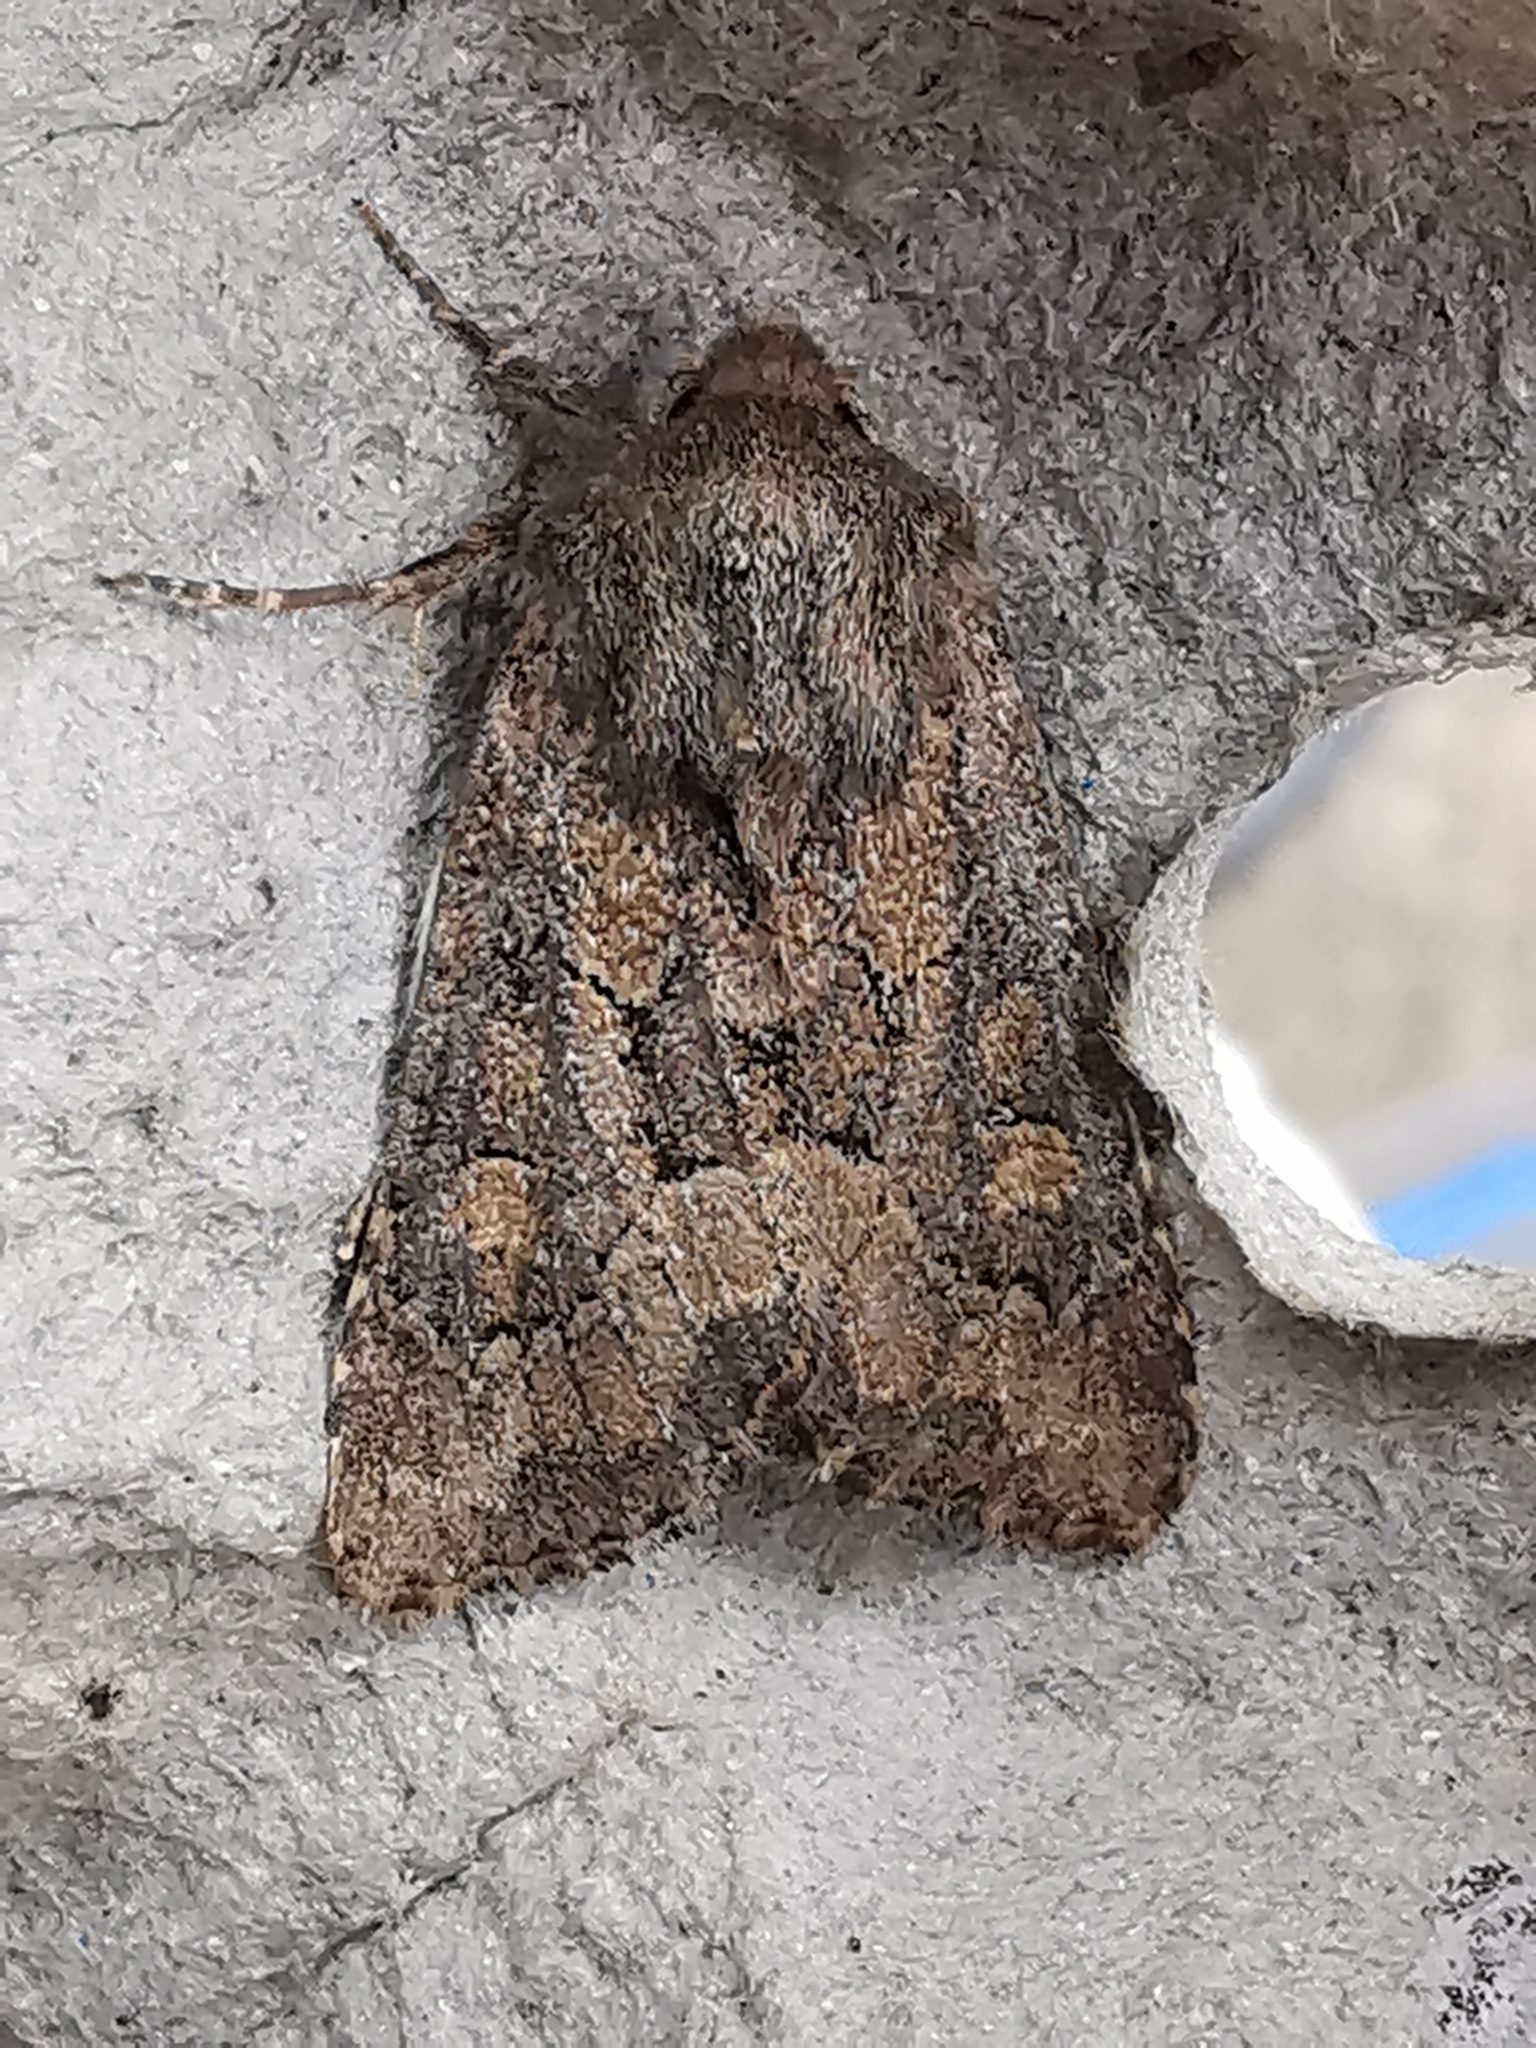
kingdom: Animalia
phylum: Arthropoda
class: Insecta
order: Lepidoptera
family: Noctuidae
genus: Luperina
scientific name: Luperina testacea
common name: Flounced rustic
